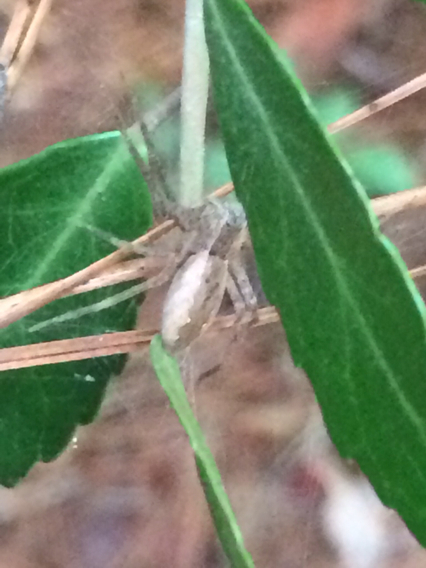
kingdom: Animalia
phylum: Arthropoda
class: Arachnida
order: Araneae
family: Pisauridae
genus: Pisaurina
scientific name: Pisaurina mira
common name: American nursery web spider
